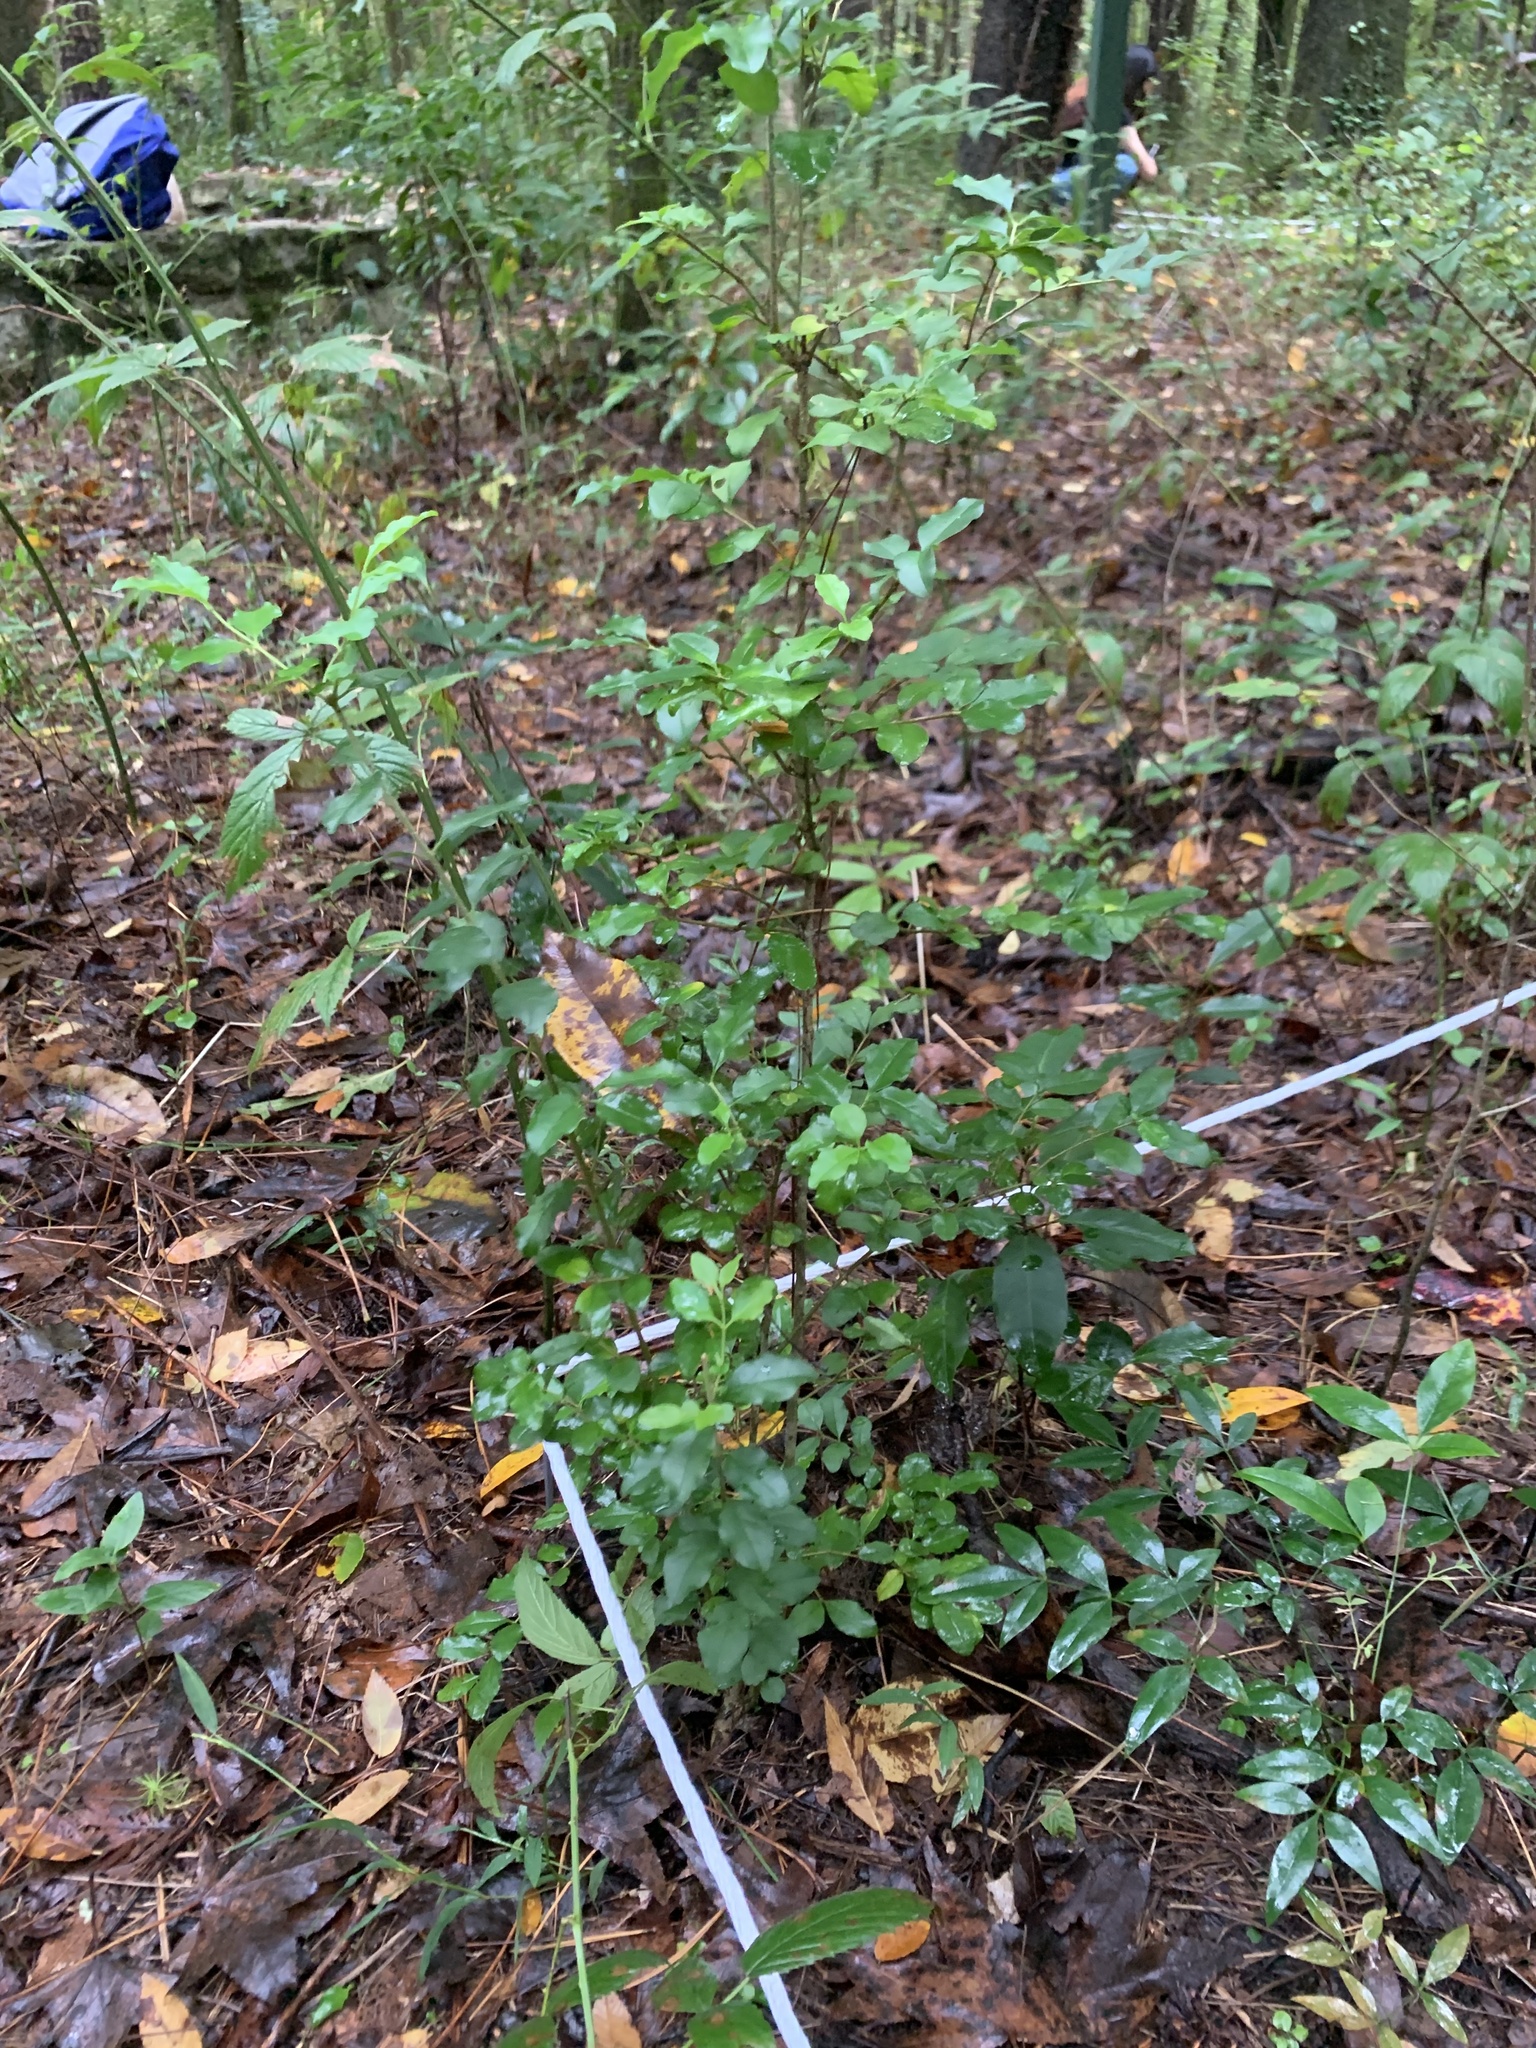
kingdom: Plantae
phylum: Tracheophyta
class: Magnoliopsida
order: Lamiales
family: Oleaceae
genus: Ligustrum
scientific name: Ligustrum sinense
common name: Chinese privet
